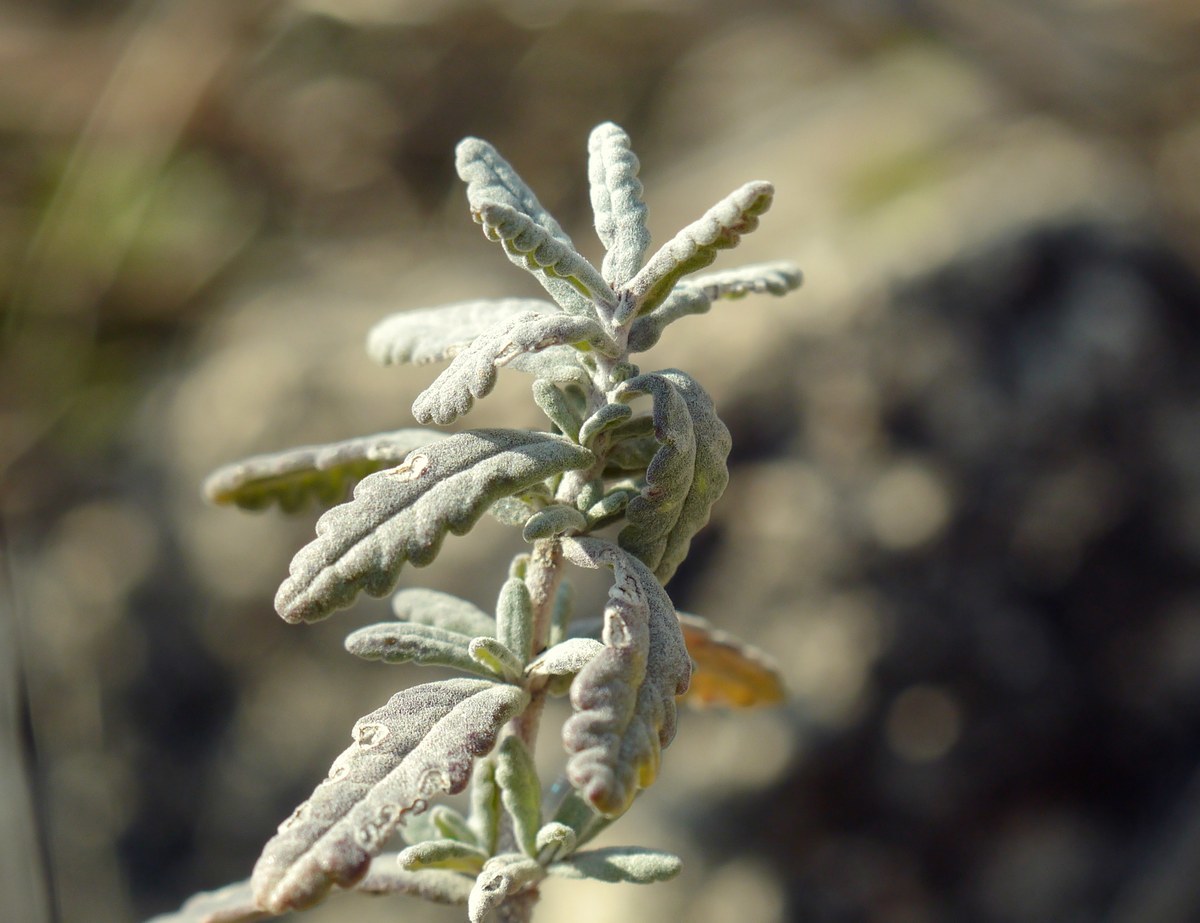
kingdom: Plantae
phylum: Tracheophyta
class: Magnoliopsida
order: Lamiales
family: Lamiaceae
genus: Teucrium
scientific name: Teucrium polium
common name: Poley
